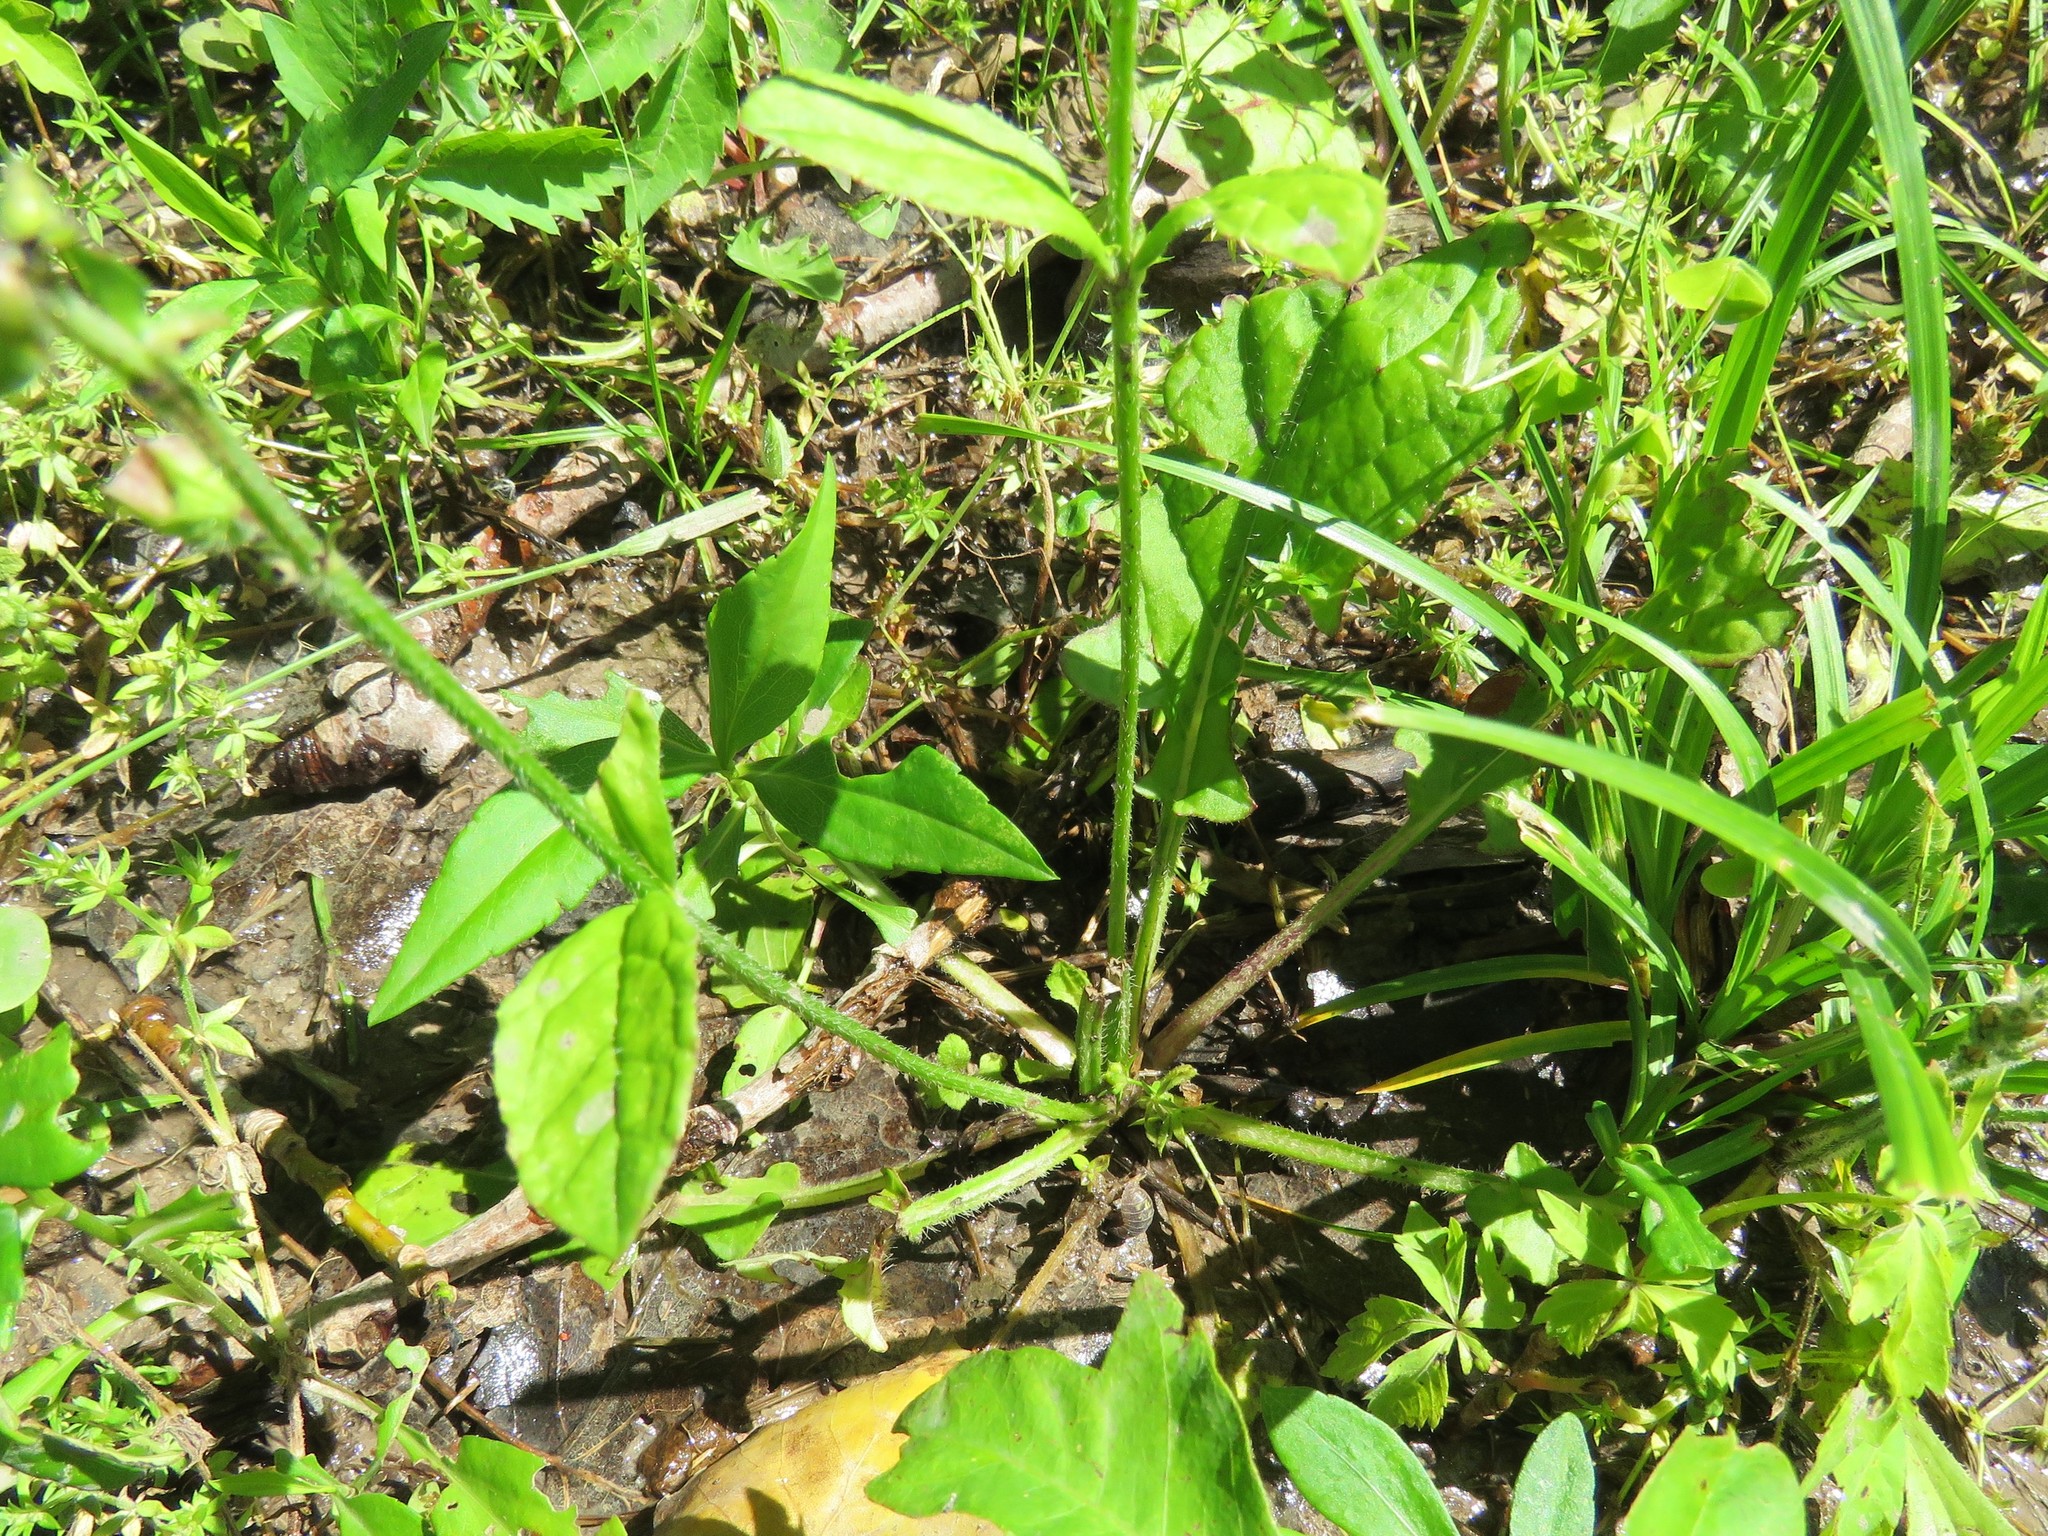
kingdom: Plantae
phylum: Tracheophyta
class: Magnoliopsida
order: Lamiales
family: Lamiaceae
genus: Salvia
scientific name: Salvia lyrata
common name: Cancerweed
